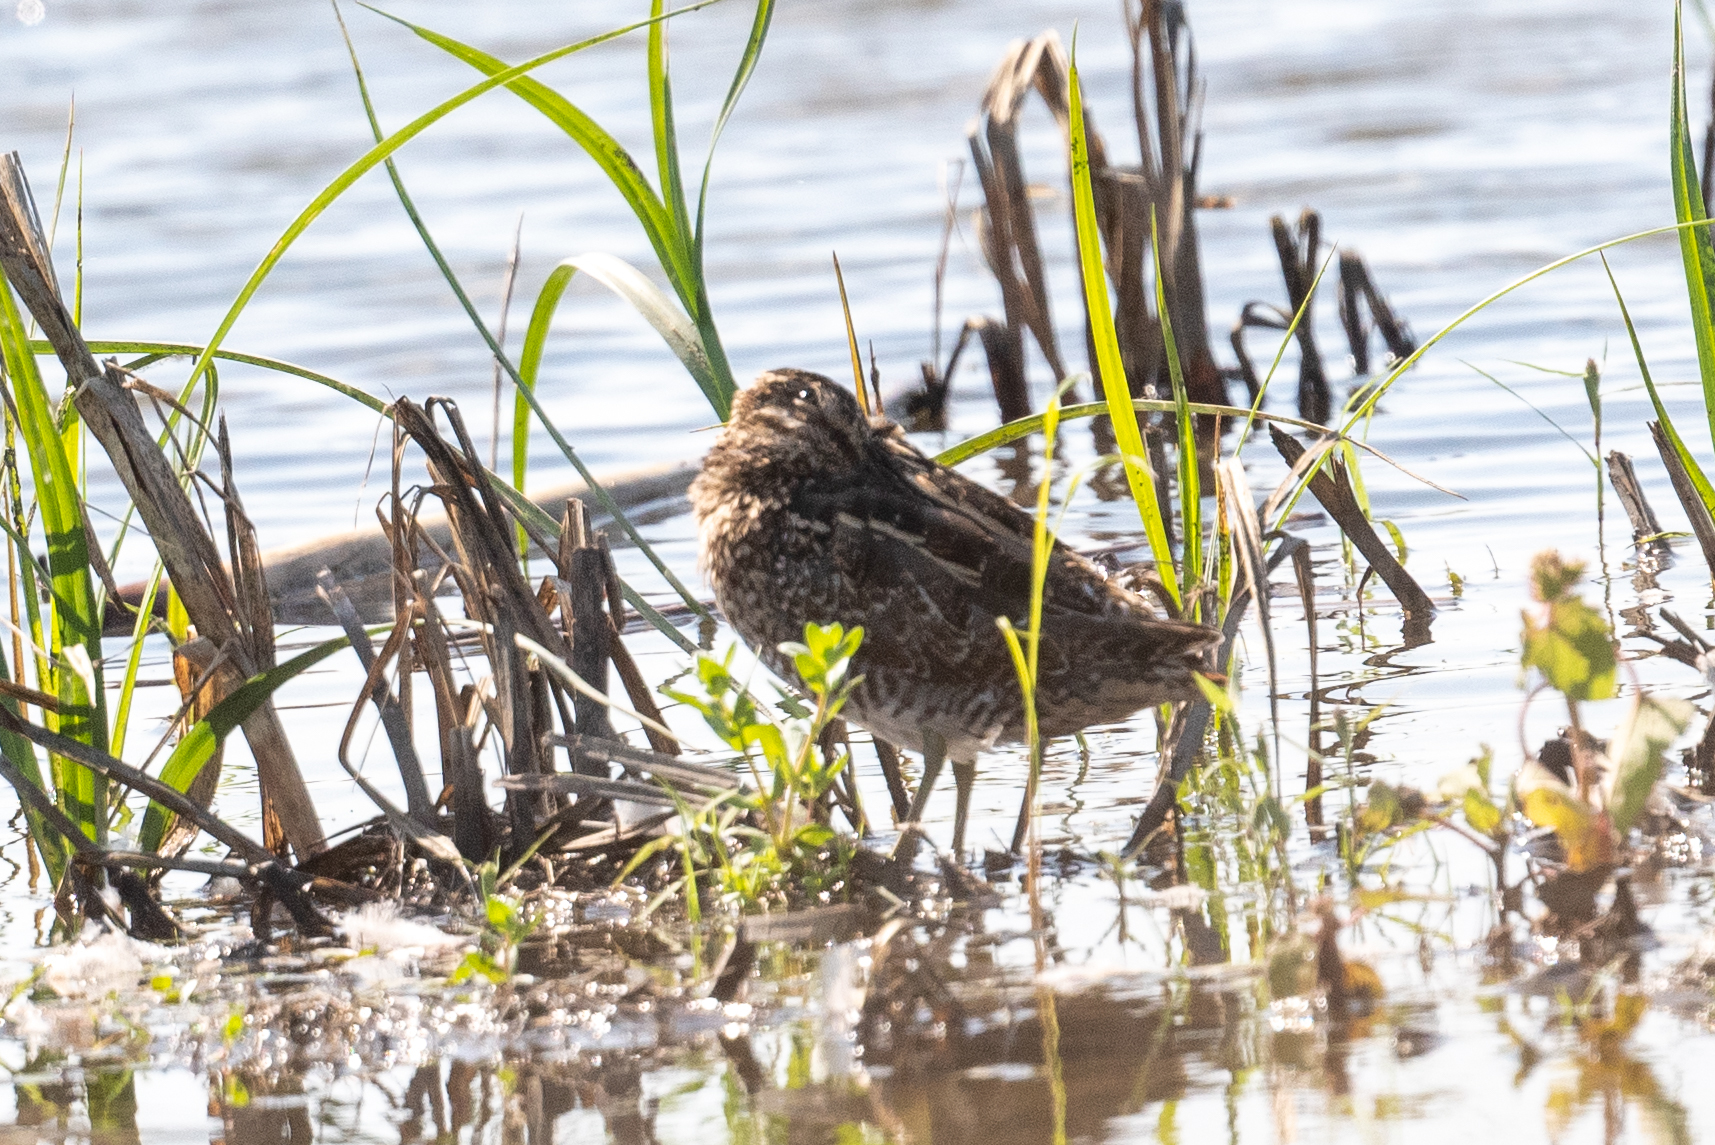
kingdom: Animalia
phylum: Chordata
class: Aves
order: Charadriiformes
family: Scolopacidae
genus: Gallinago
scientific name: Gallinago delicata
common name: Wilson's snipe
